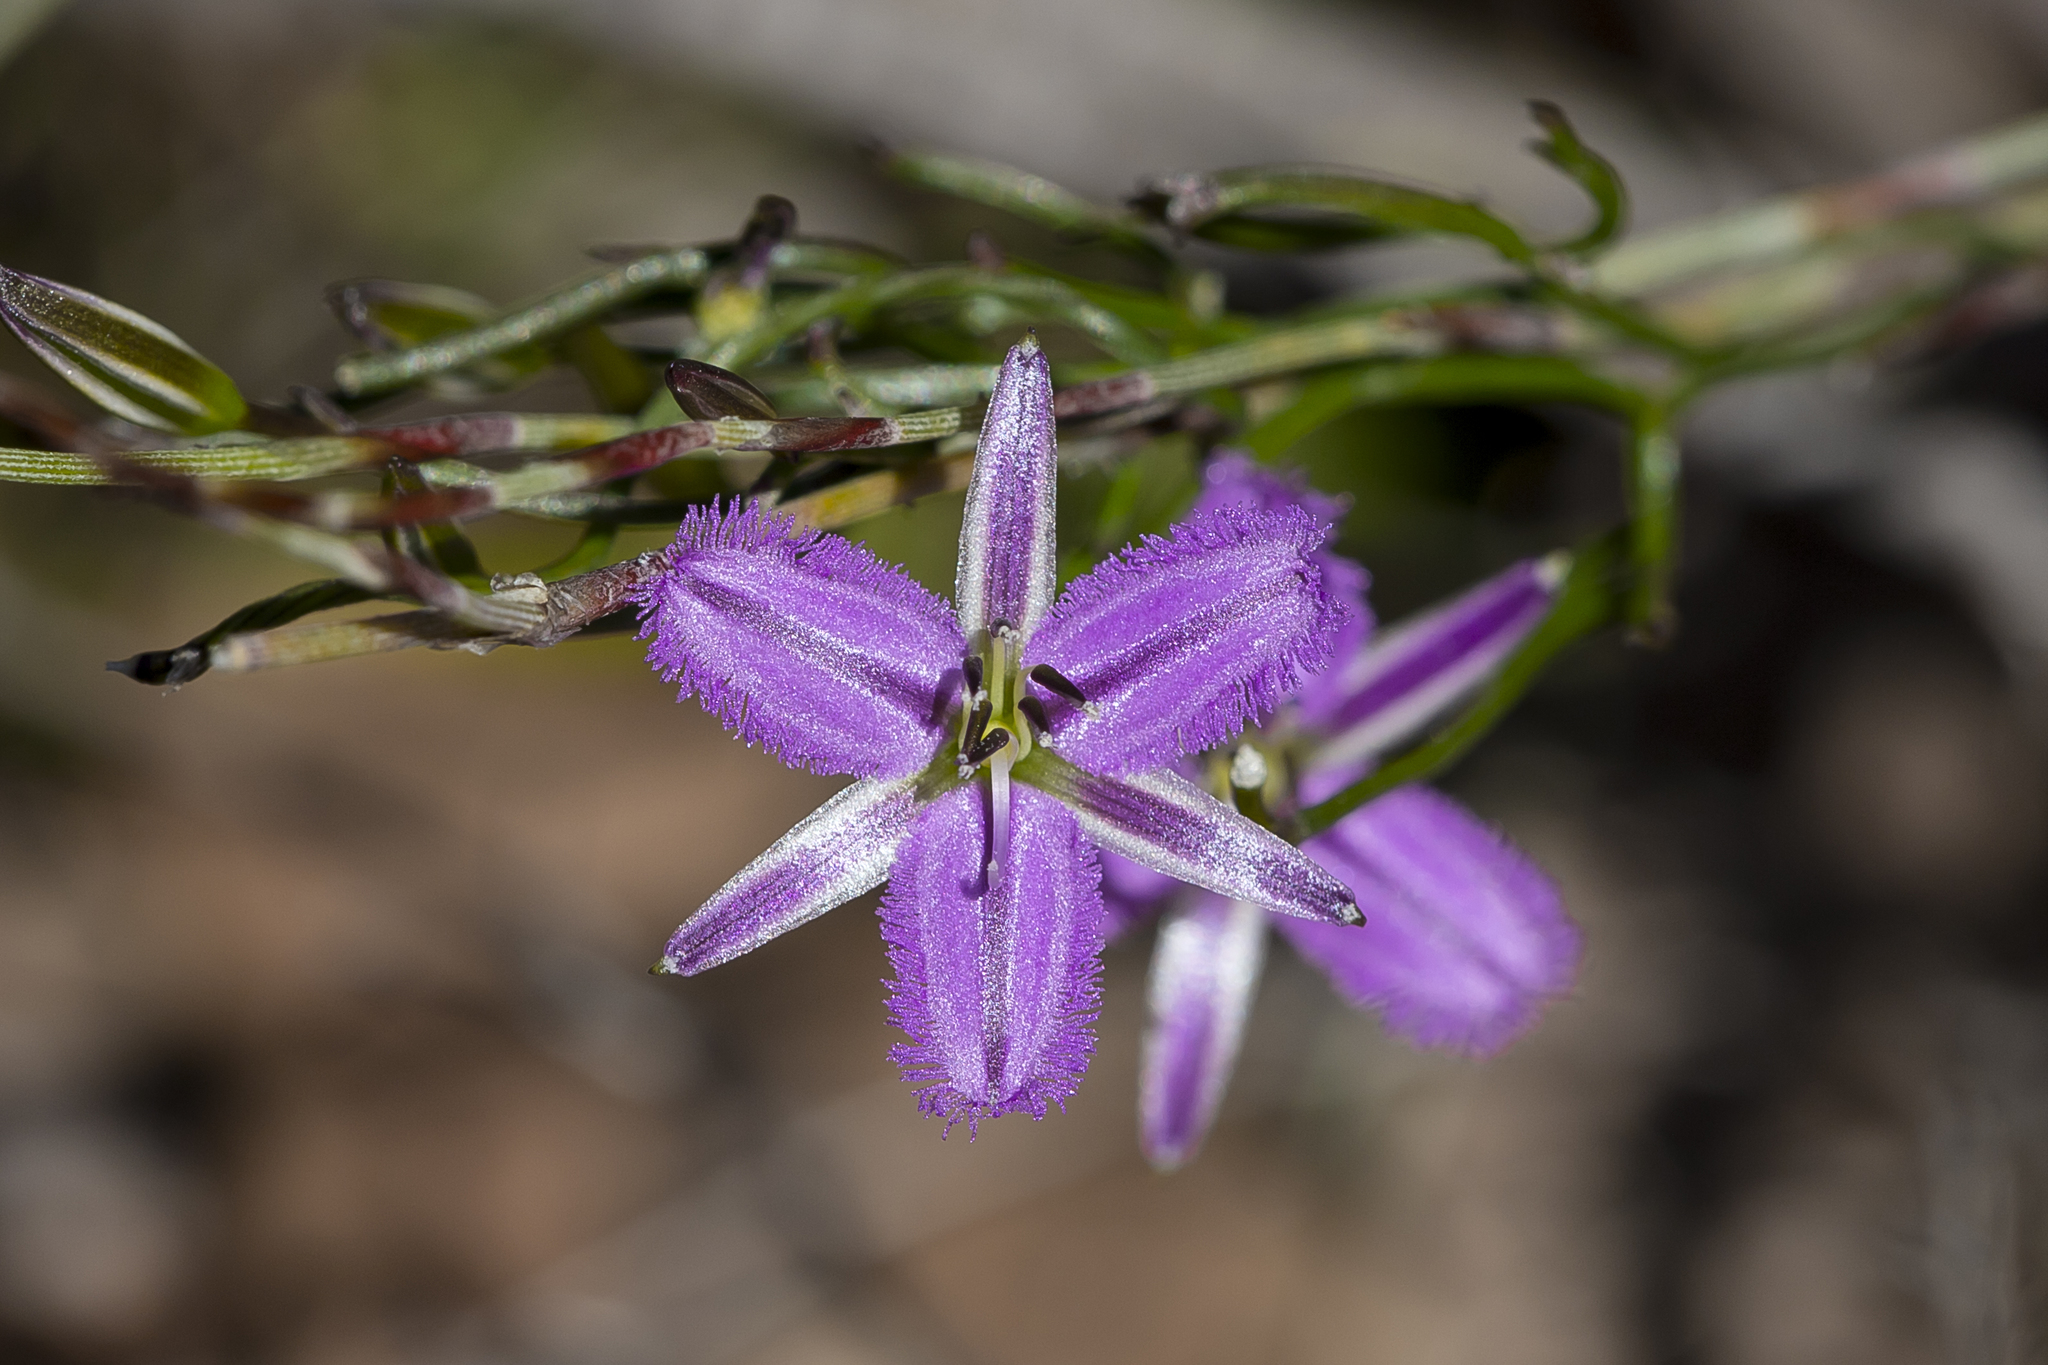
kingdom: Plantae
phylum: Tracheophyta
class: Liliopsida
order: Asparagales
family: Asparagaceae
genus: Thysanotus
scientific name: Thysanotus patersonii
